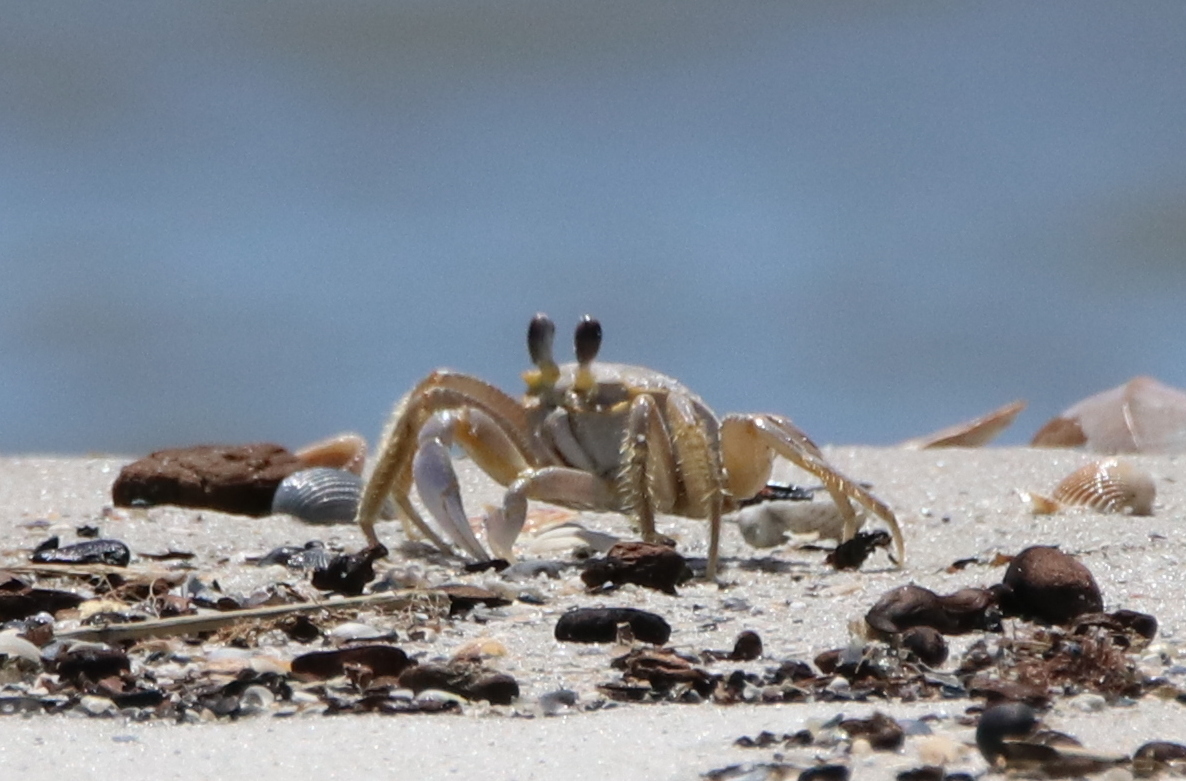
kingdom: Animalia
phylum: Arthropoda
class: Malacostraca
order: Decapoda
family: Ocypodidae
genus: Ocypode
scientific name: Ocypode quadrata
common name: Ghost crab
